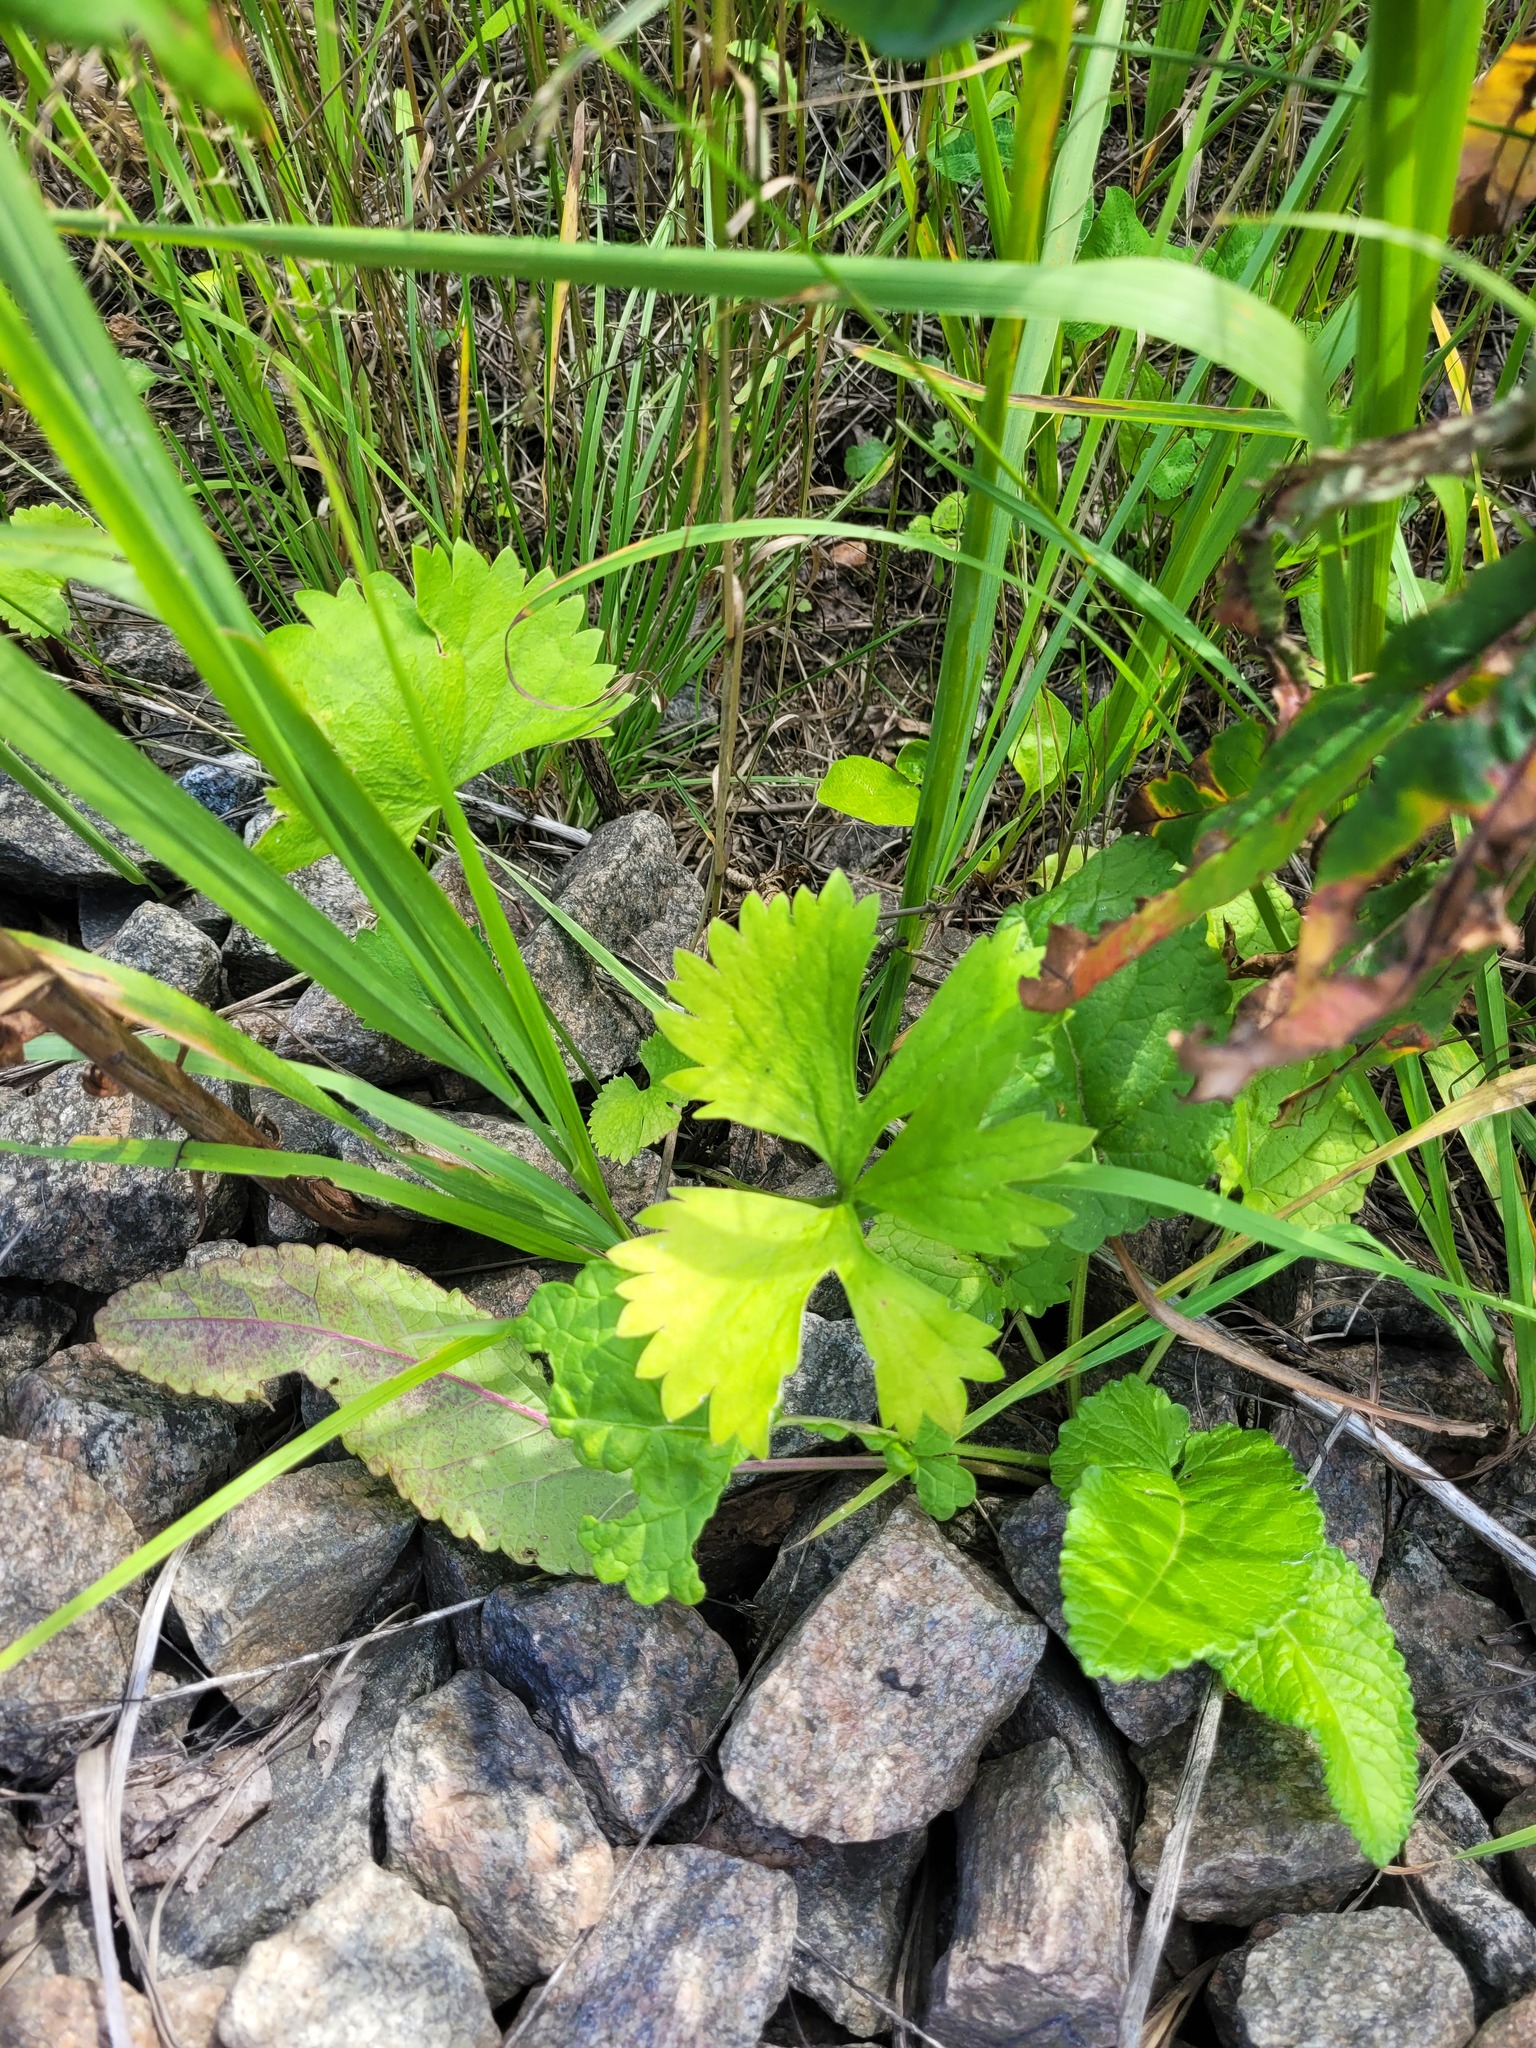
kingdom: Plantae
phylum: Tracheophyta
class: Magnoliopsida
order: Ranunculales
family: Ranunculaceae
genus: Ranunculus
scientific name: Ranunculus fallax
